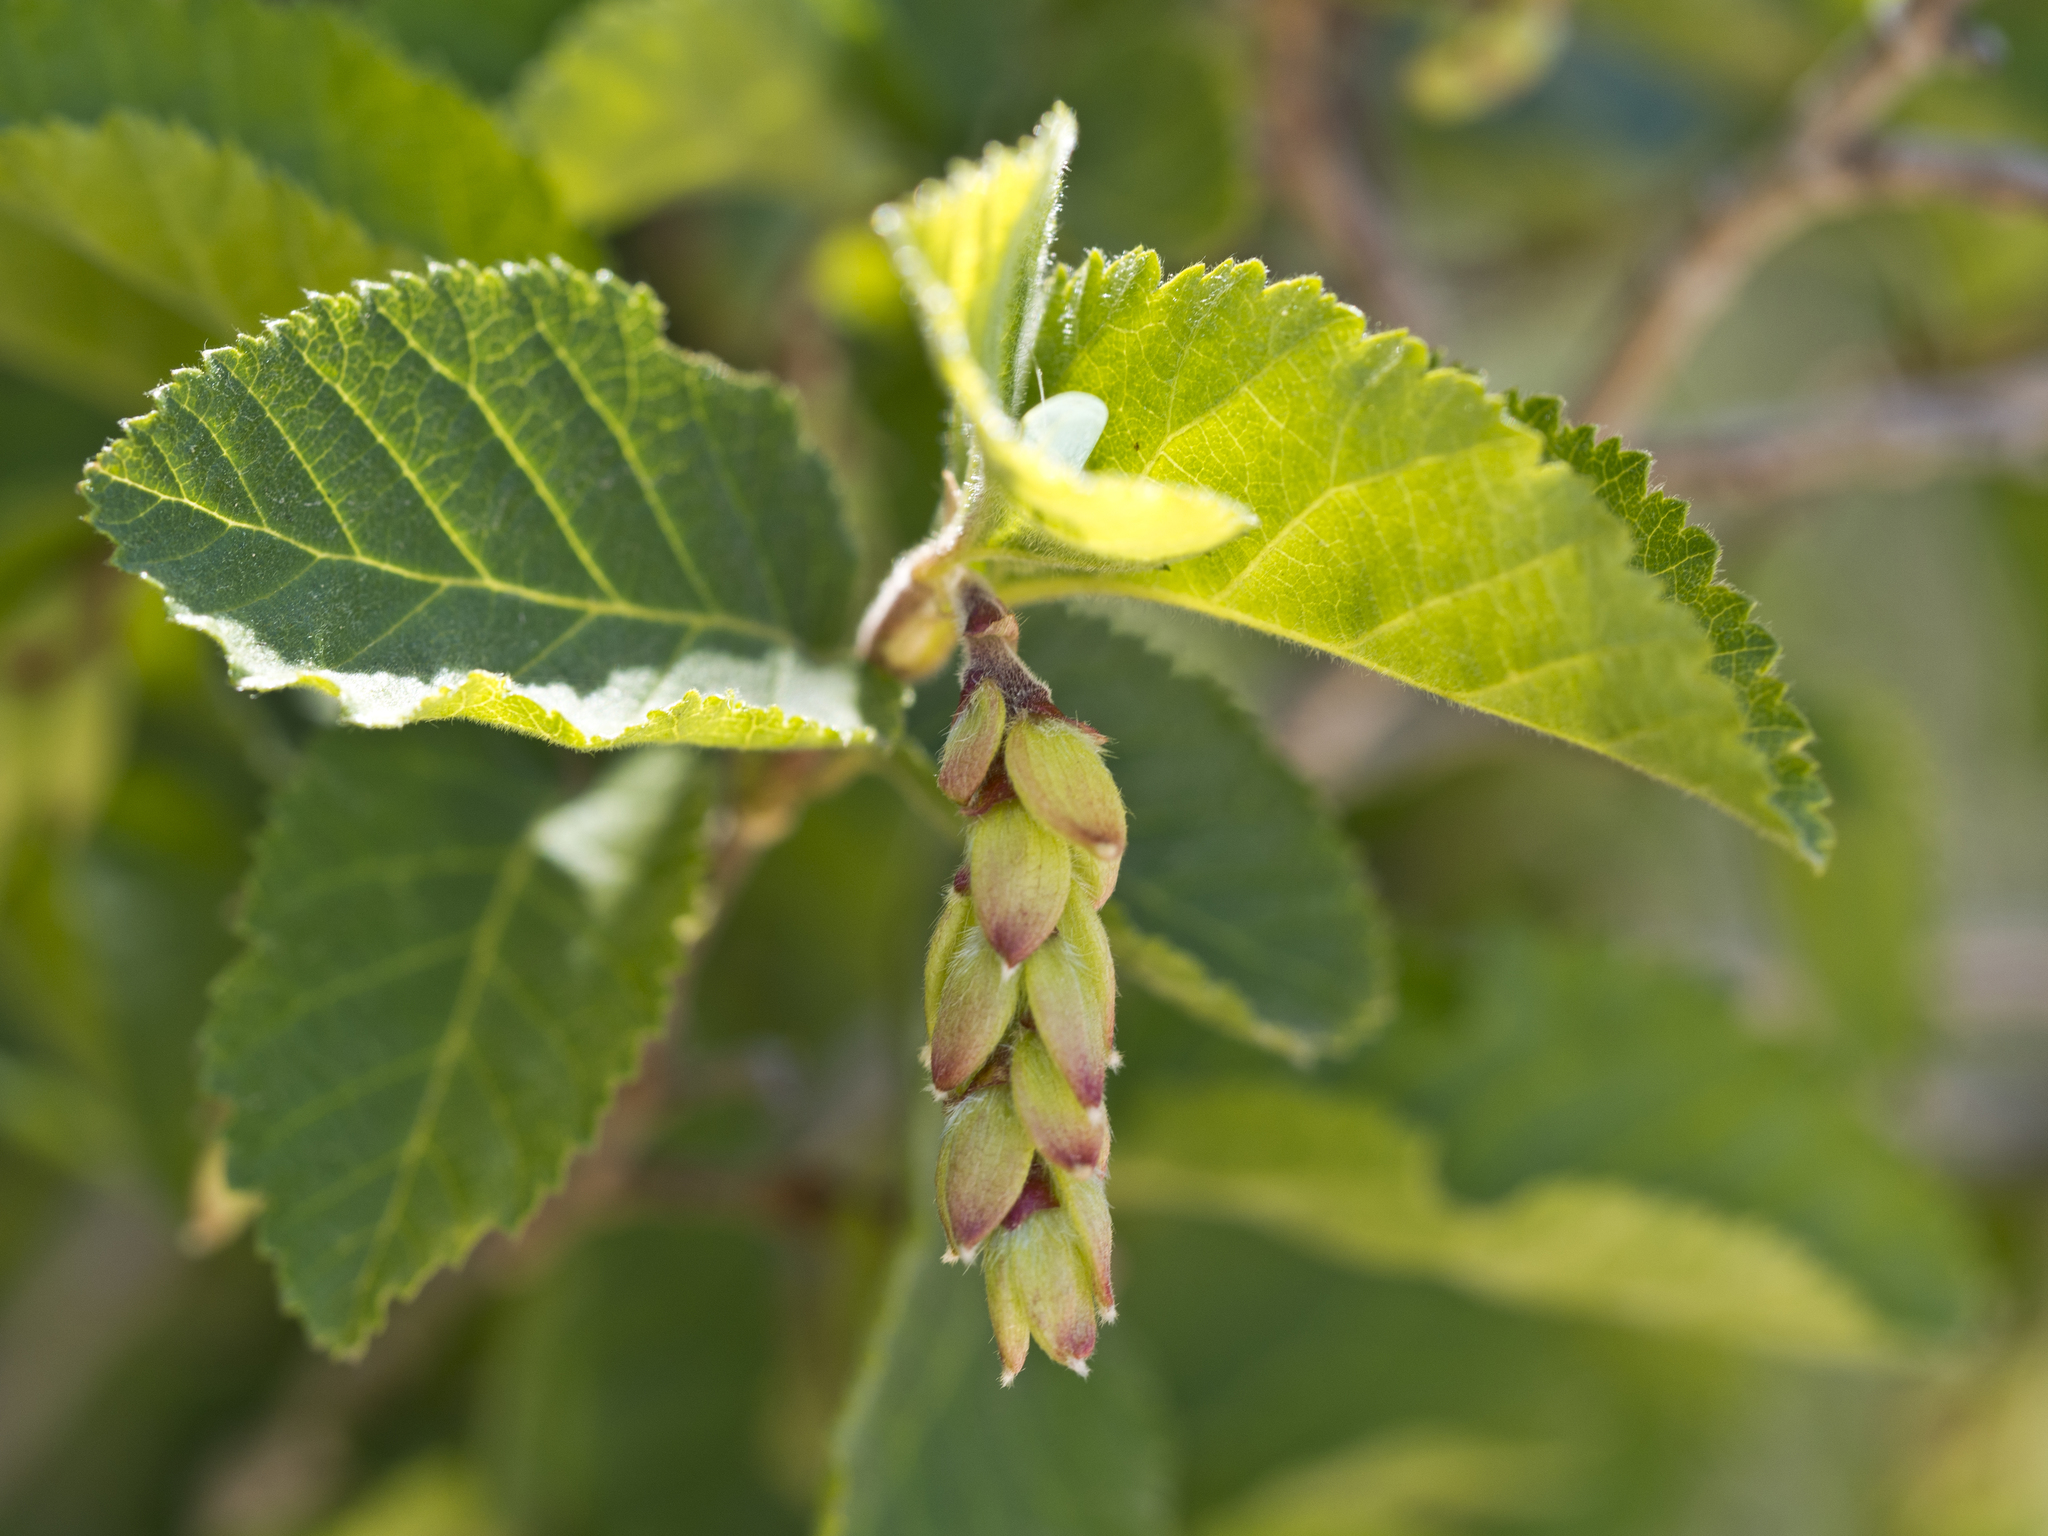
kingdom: Plantae
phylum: Tracheophyta
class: Magnoliopsida
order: Fagales
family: Betulaceae
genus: Ostrya
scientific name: Ostrya knowltonii
